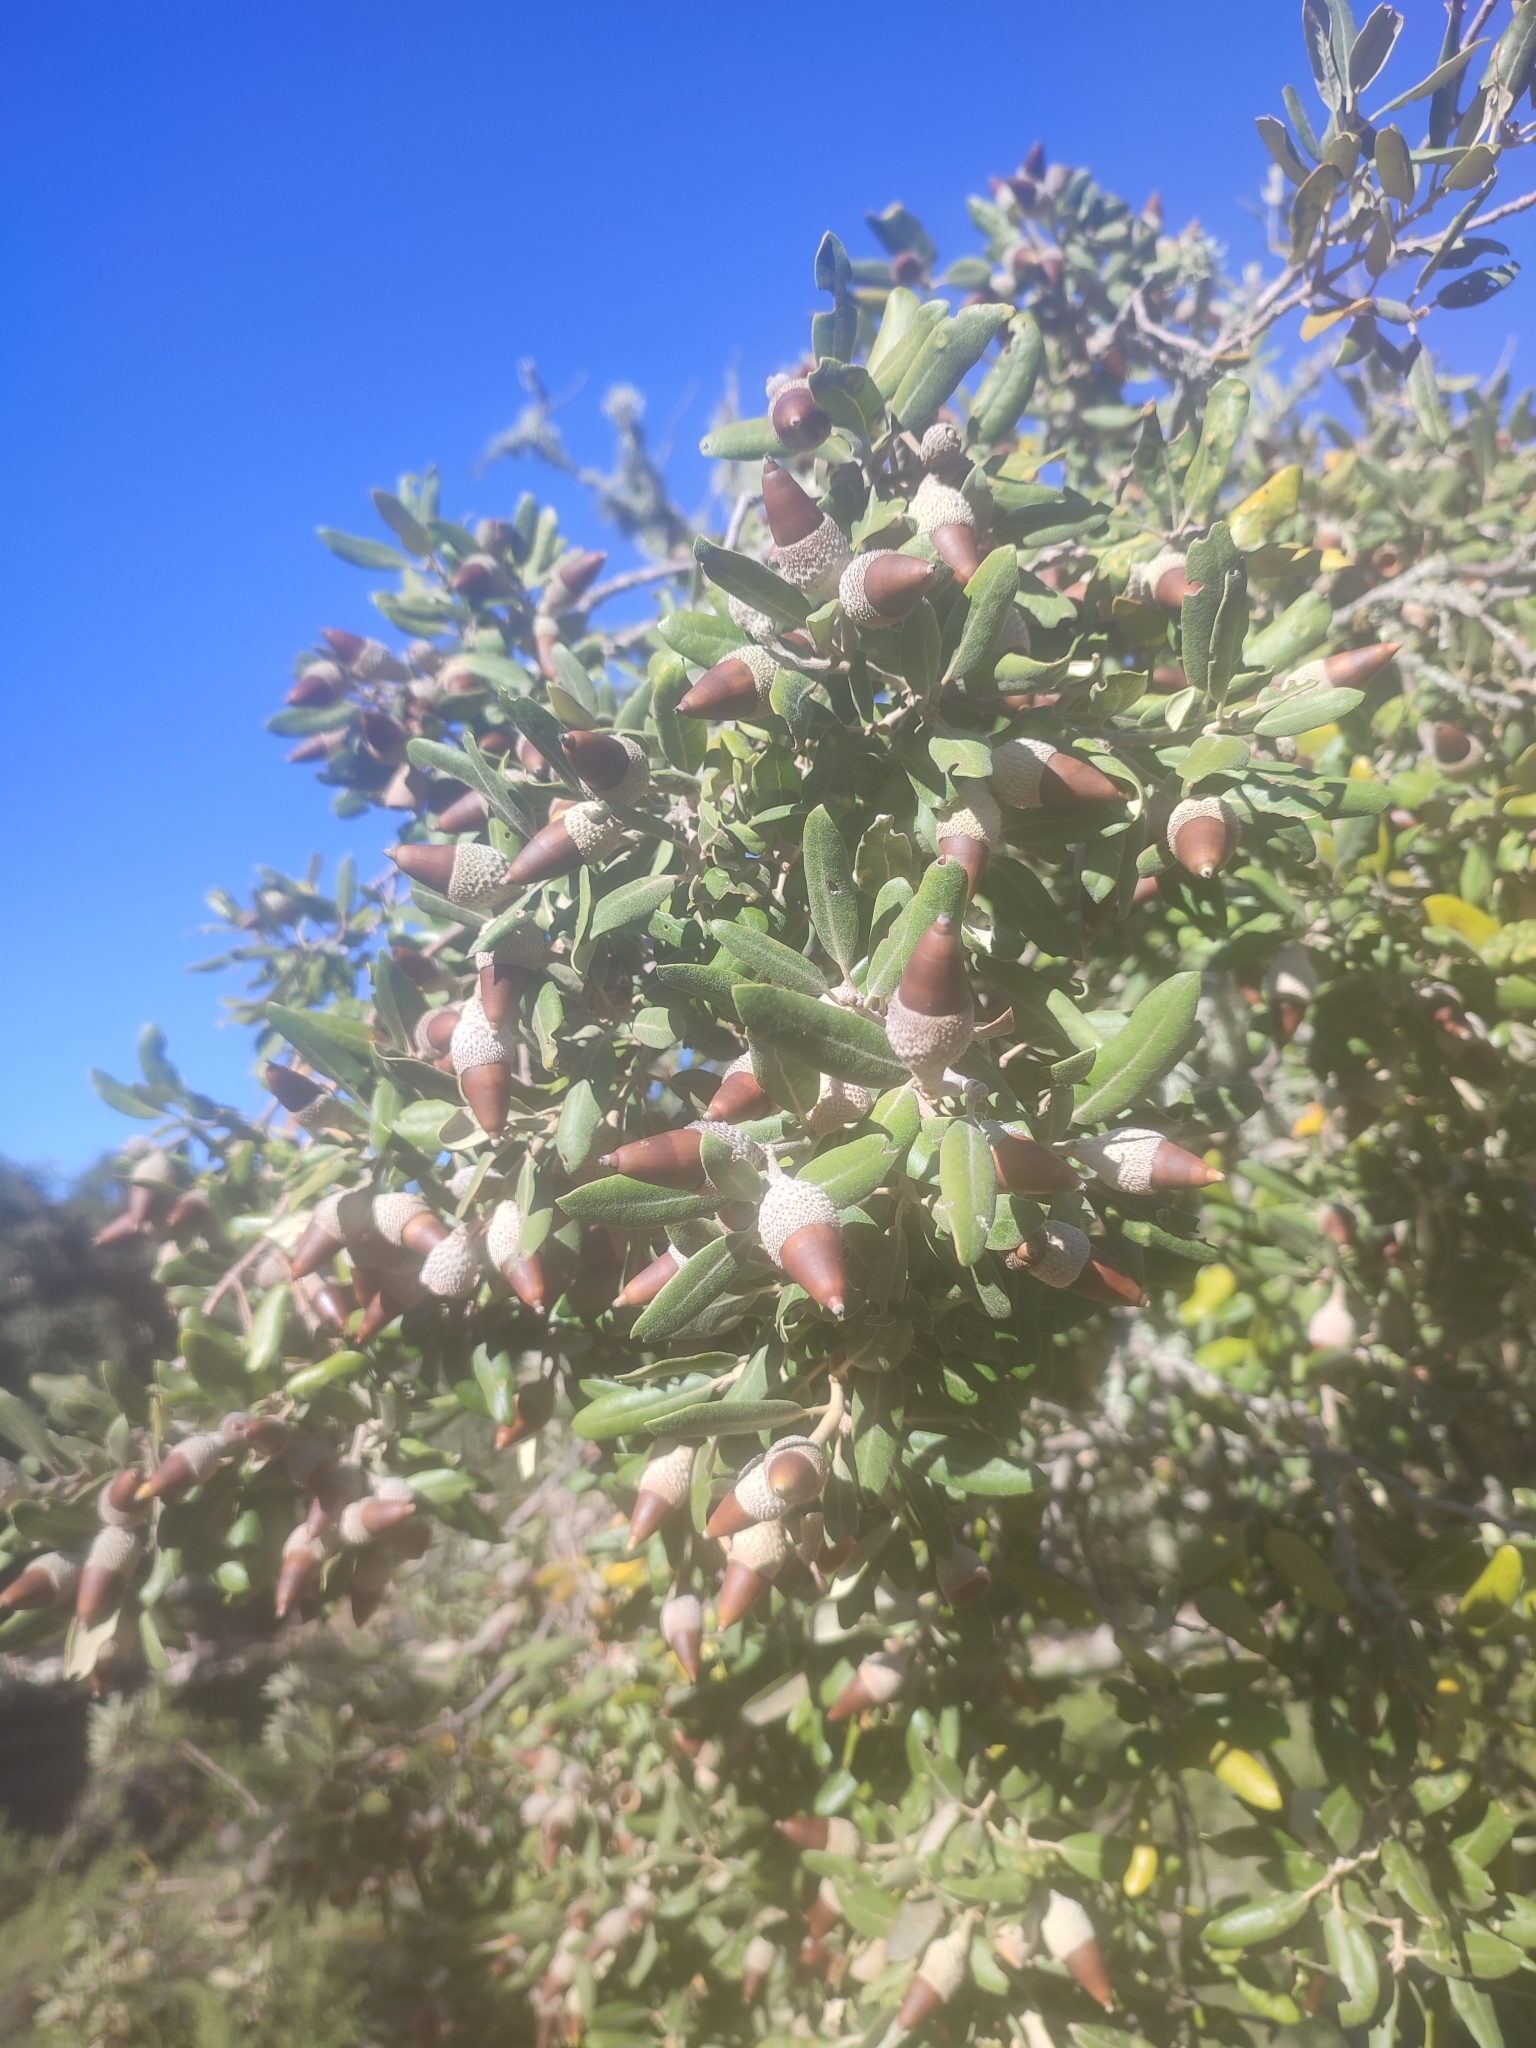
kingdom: Plantae
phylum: Tracheophyta
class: Magnoliopsida
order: Fagales
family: Fagaceae
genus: Quercus
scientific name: Quercus ilex
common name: Evergreen oak
